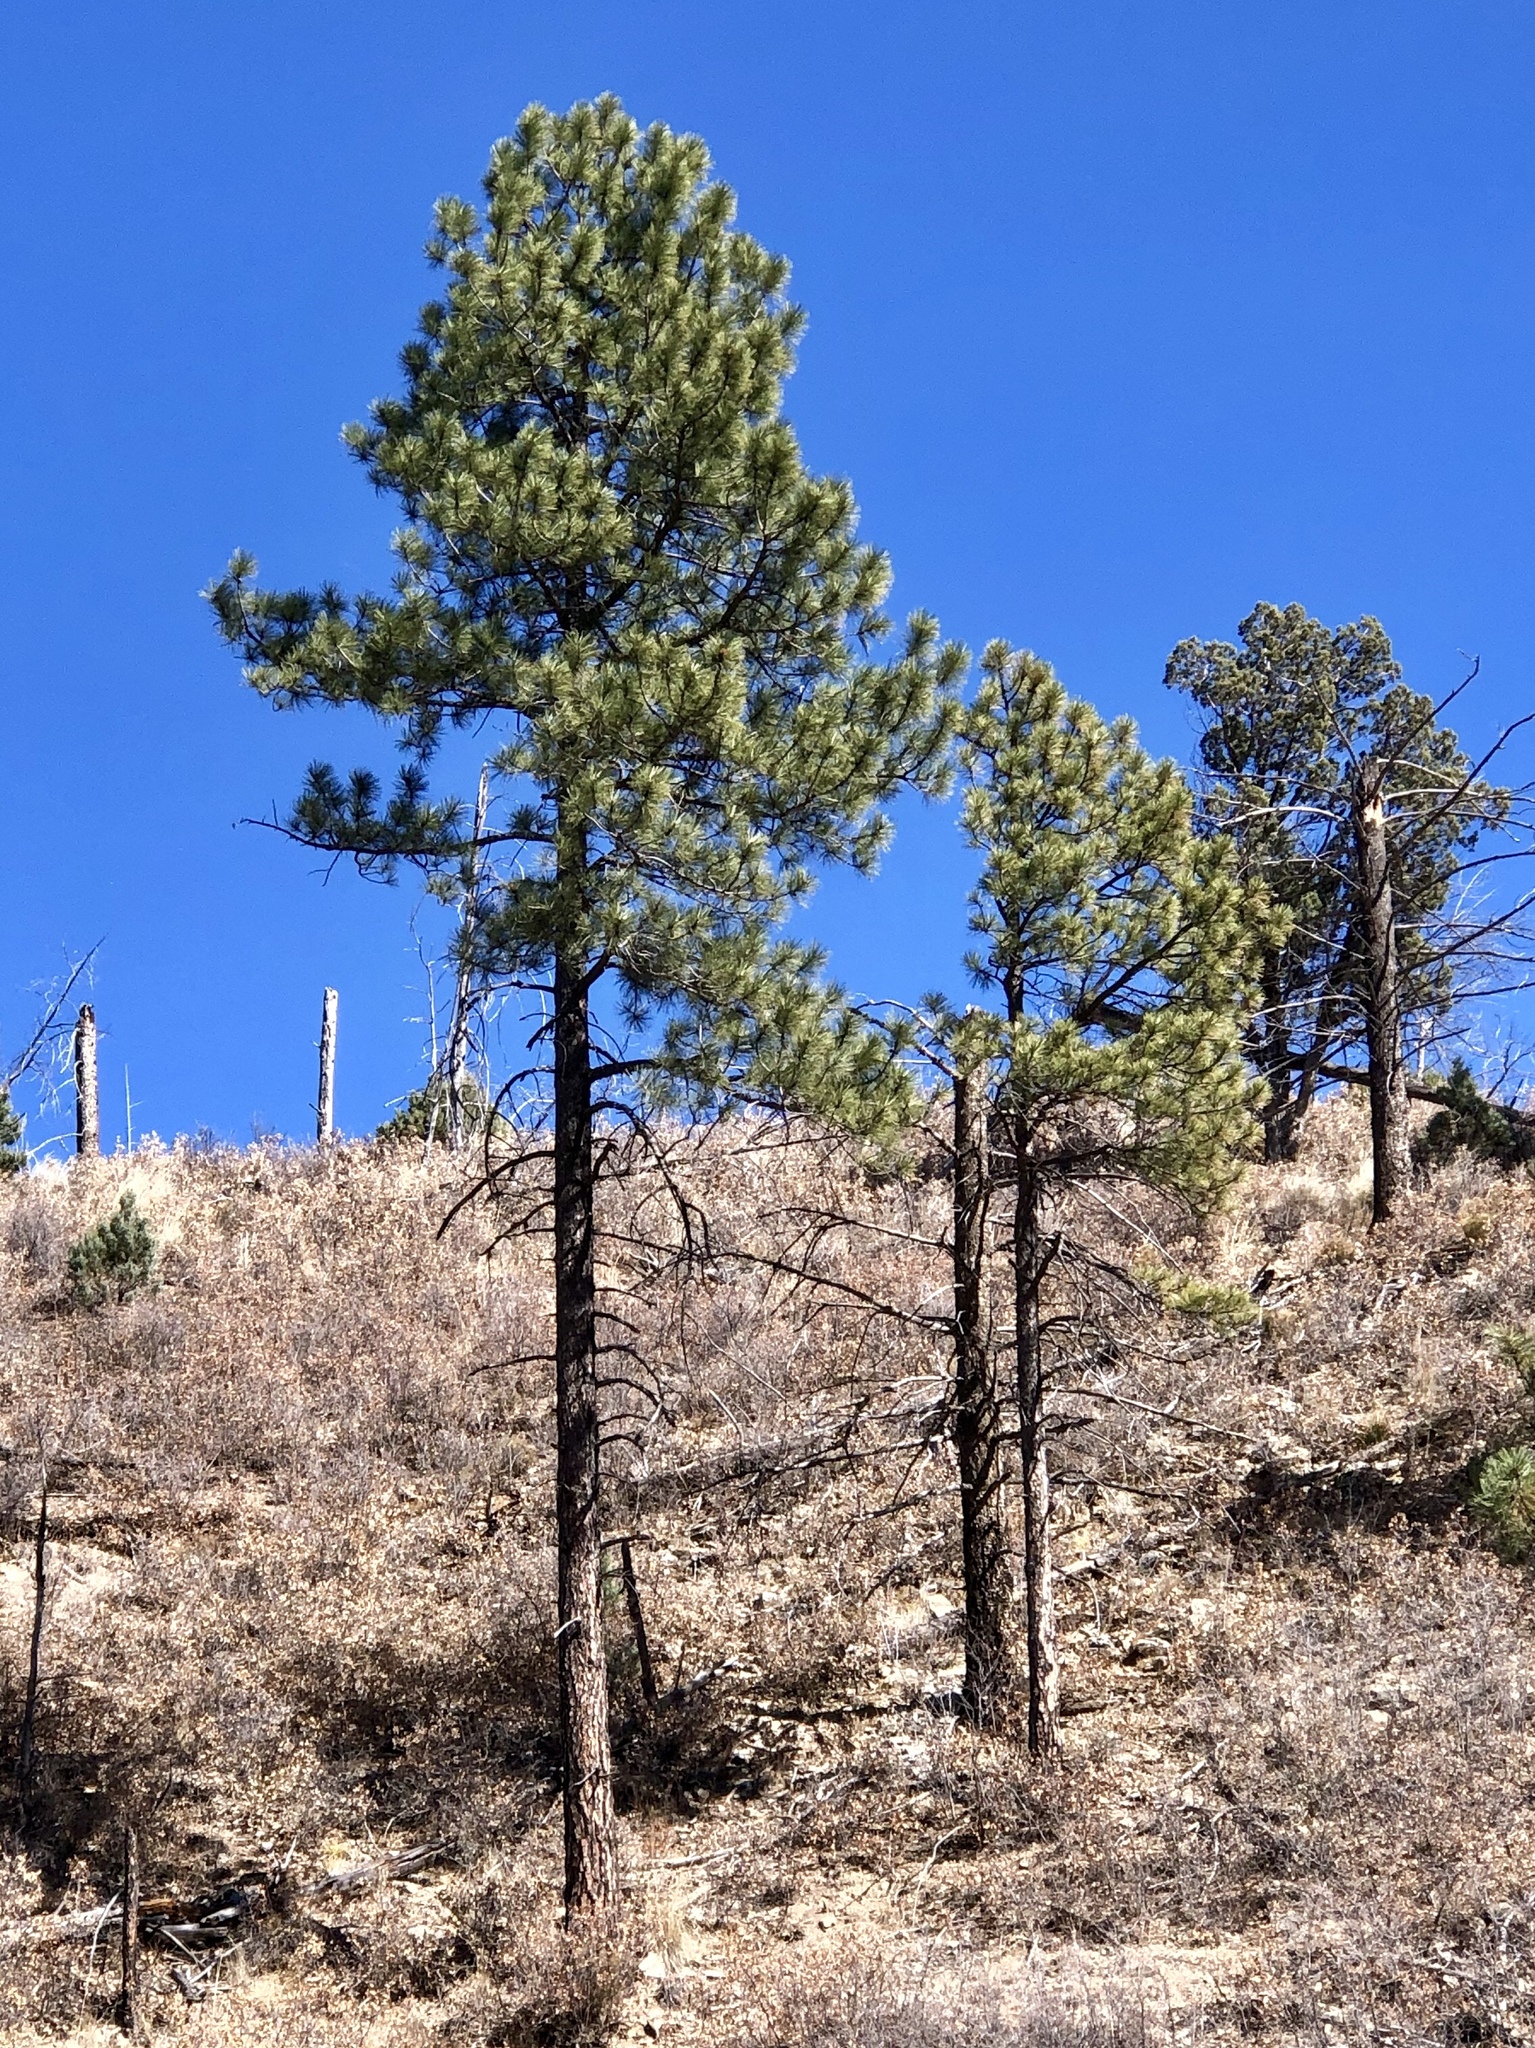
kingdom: Plantae
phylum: Tracheophyta
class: Pinopsida
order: Pinales
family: Pinaceae
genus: Pinus
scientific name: Pinus ponderosa
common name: Western yellow-pine
